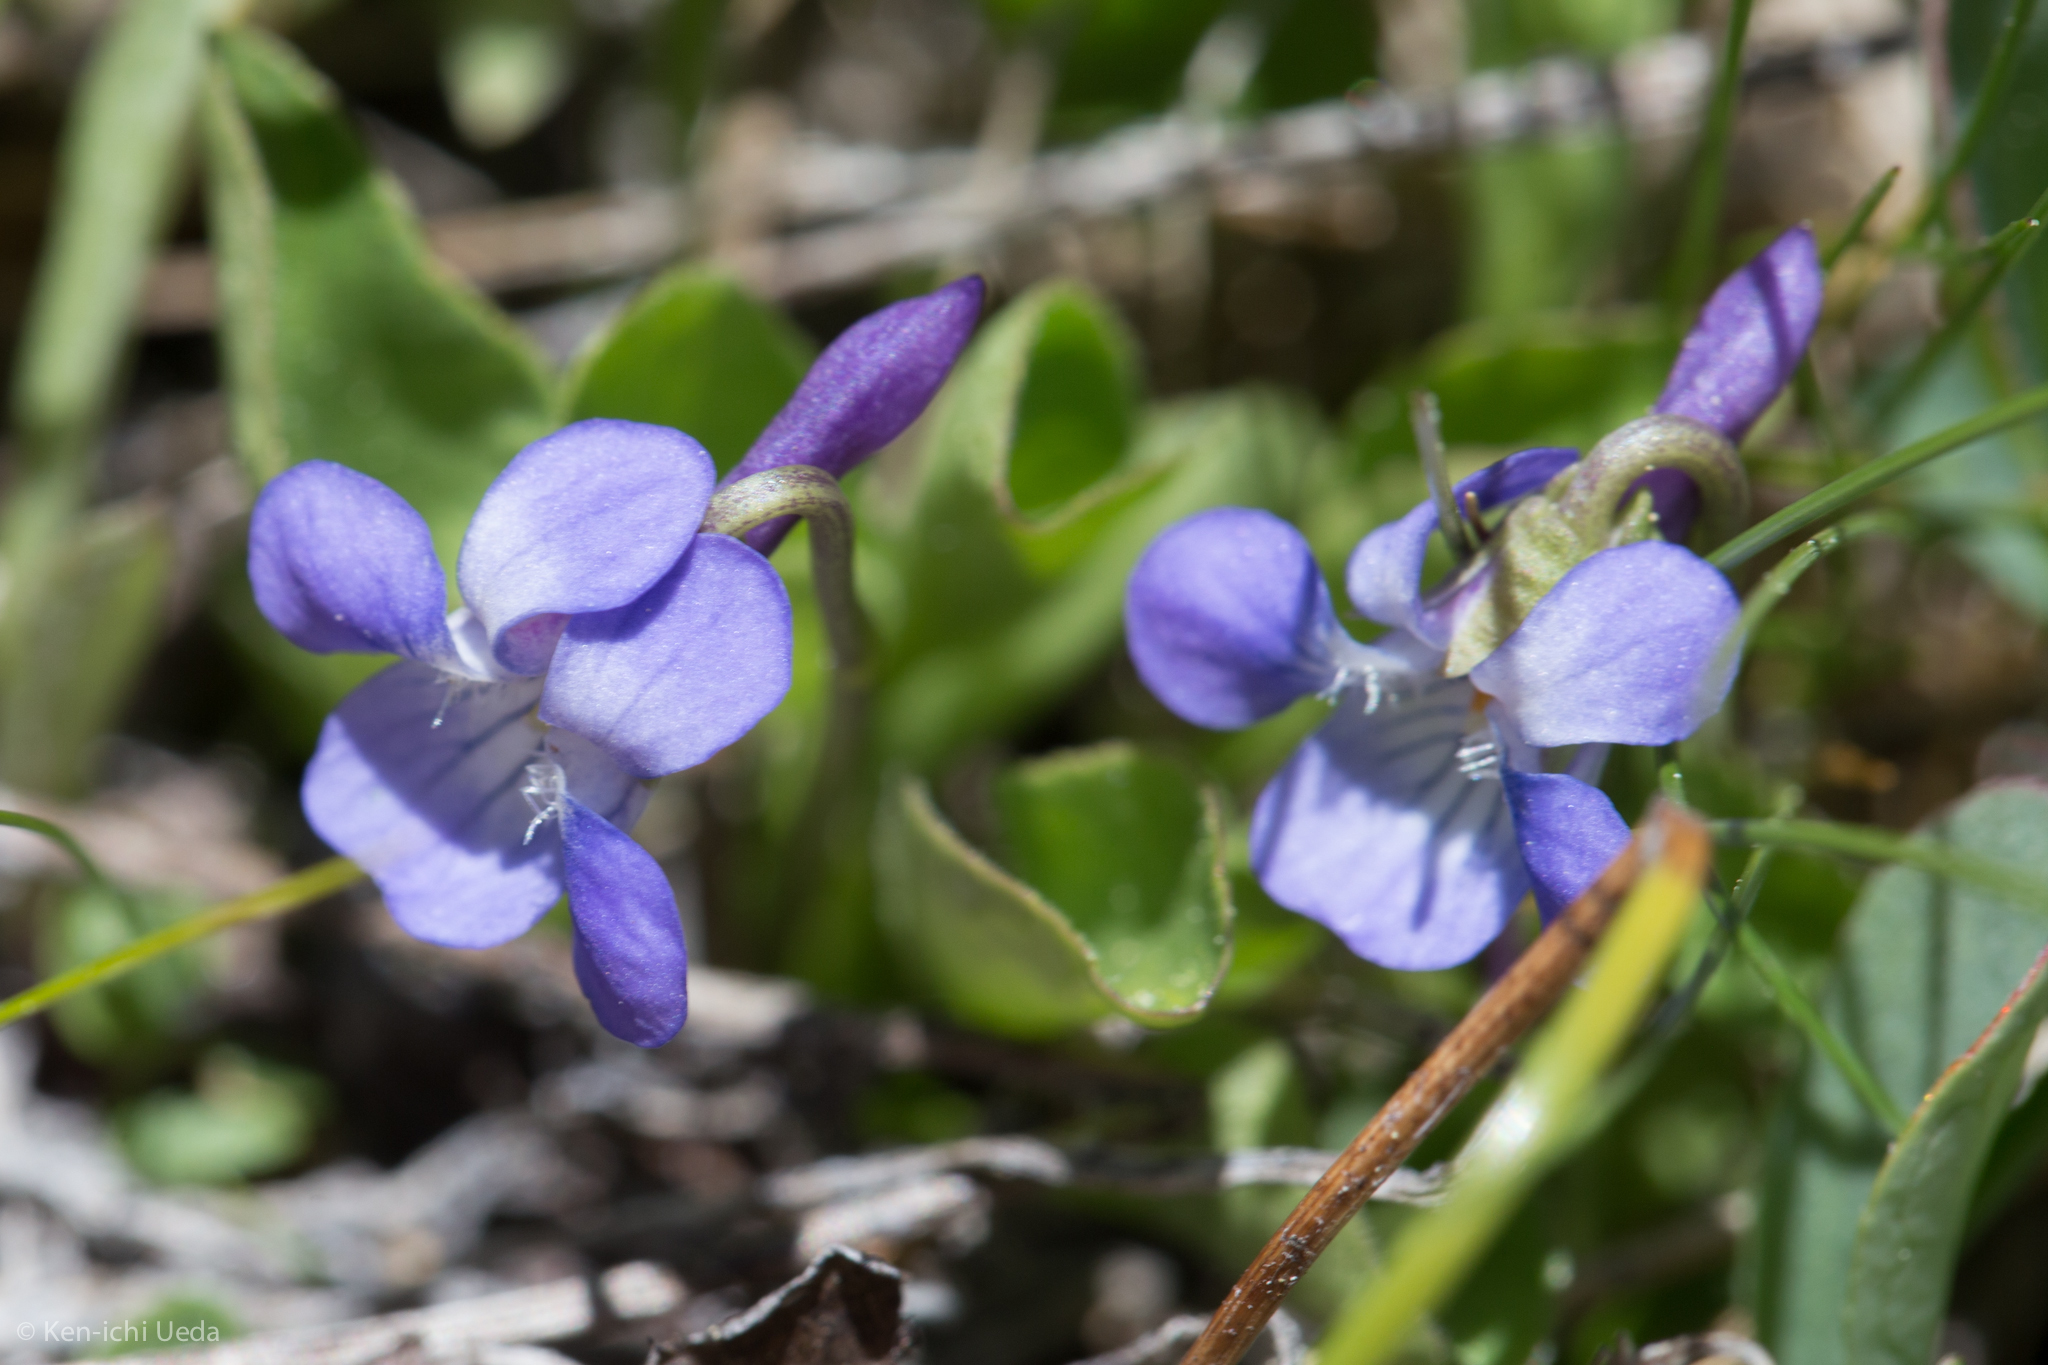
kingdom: Plantae
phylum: Tracheophyta
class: Magnoliopsida
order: Malpighiales
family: Violaceae
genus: Viola
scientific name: Viola adunca
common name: Sand violet
